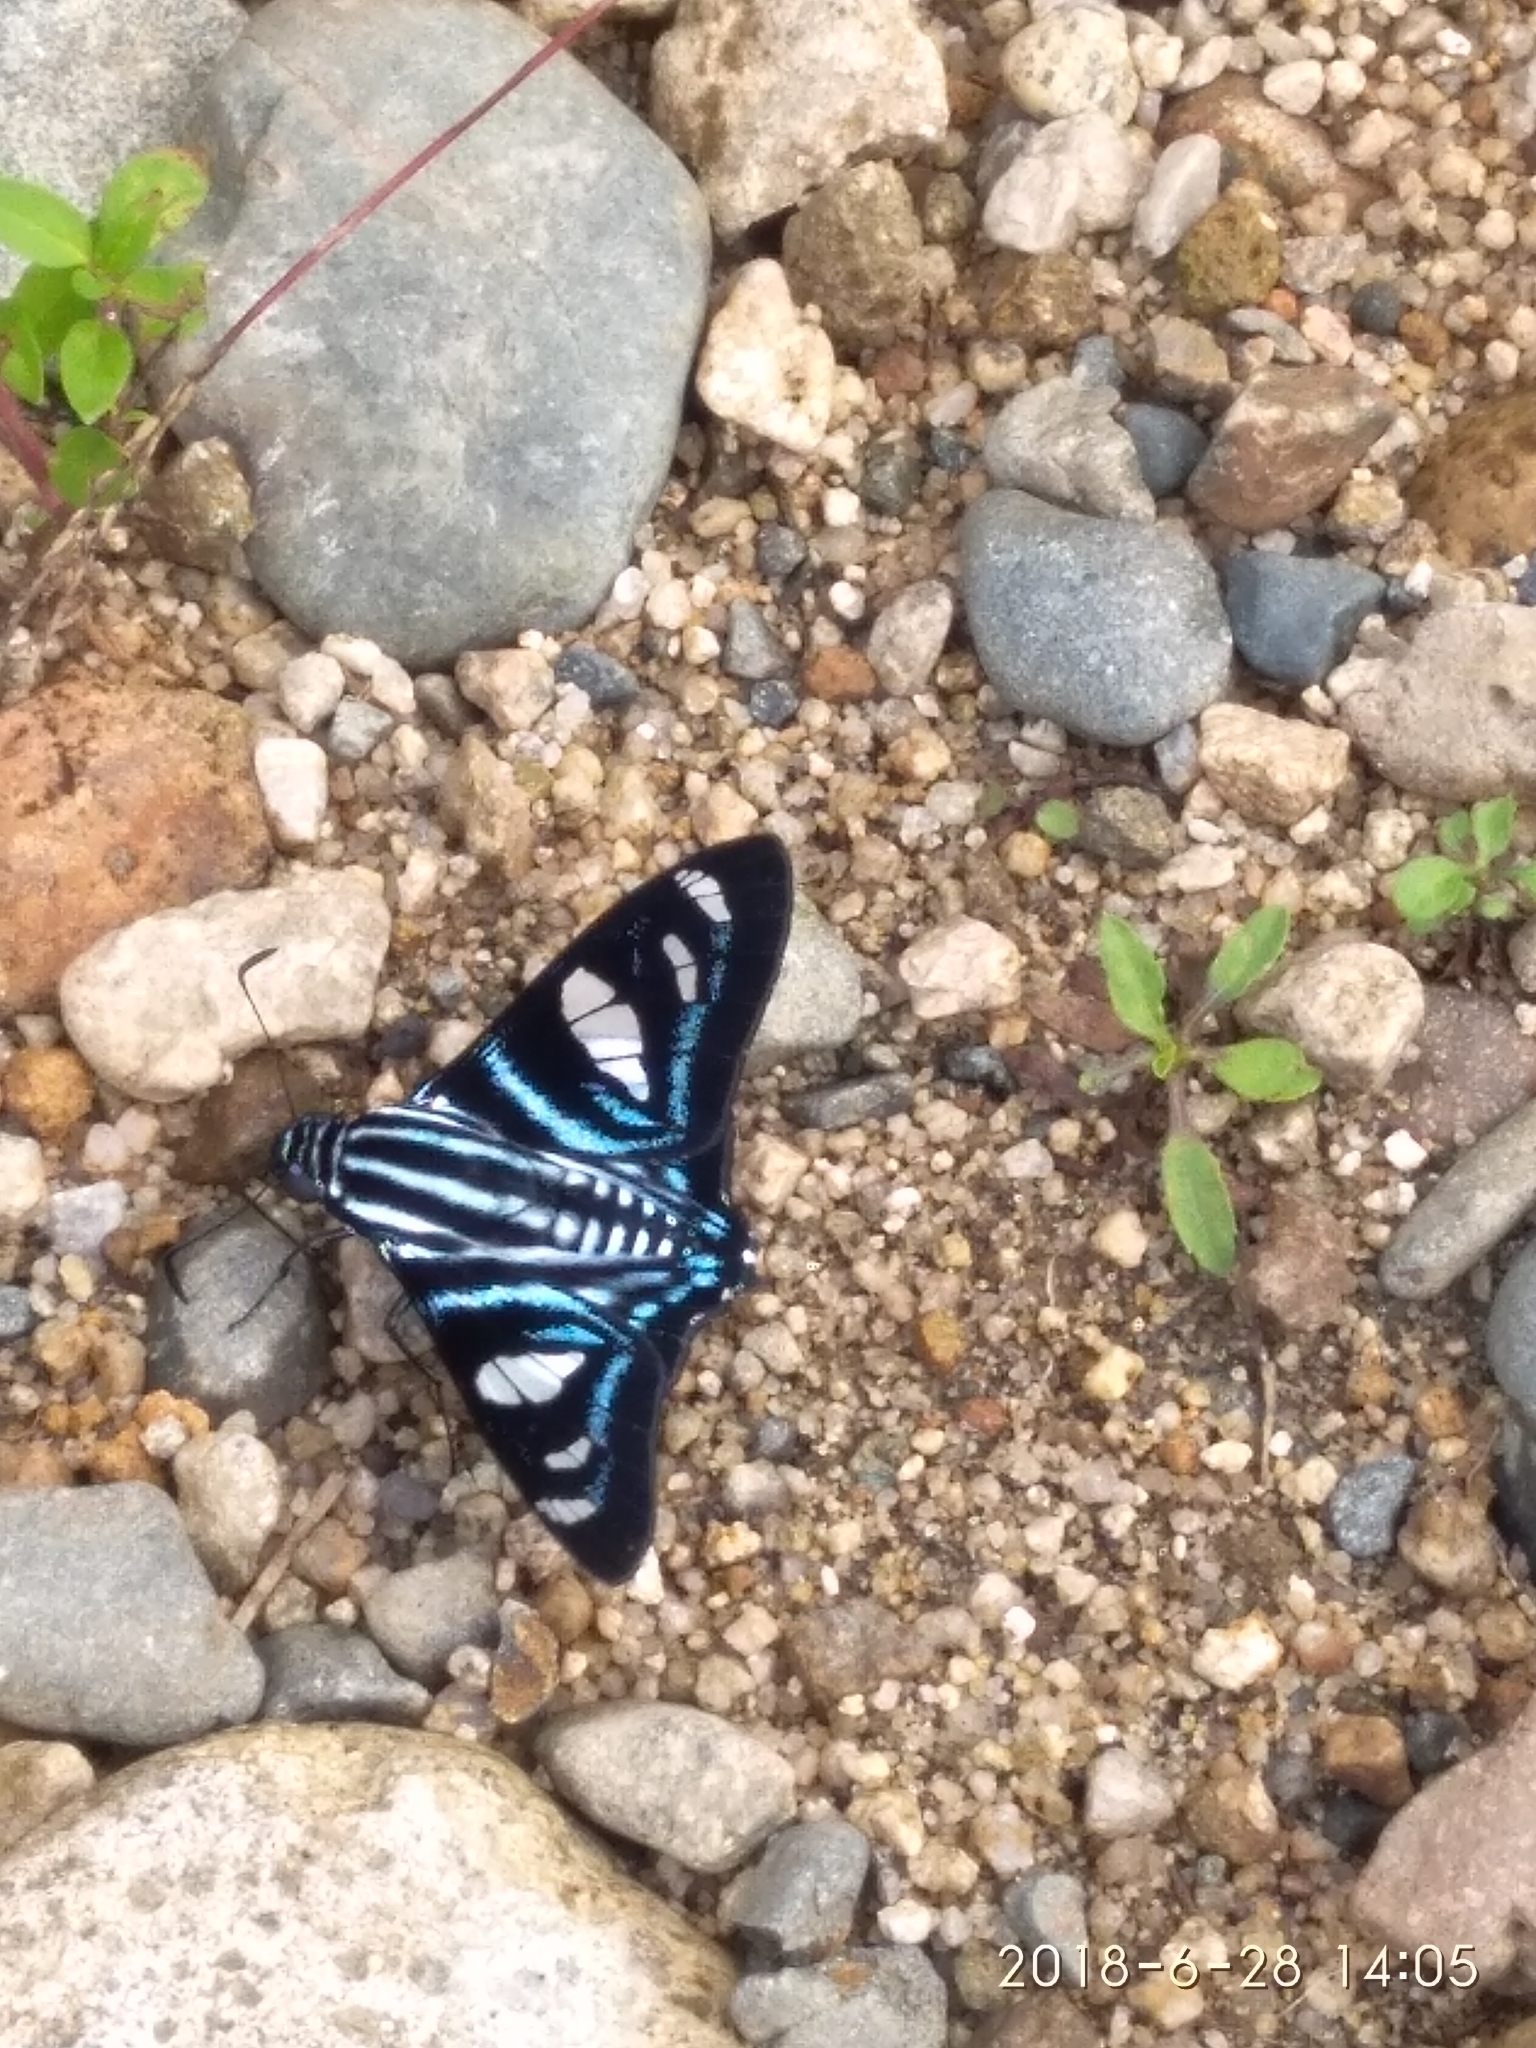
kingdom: Animalia
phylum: Arthropoda
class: Insecta
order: Lepidoptera
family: Hesperiidae
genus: Jemadia
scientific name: Jemadia fallax
